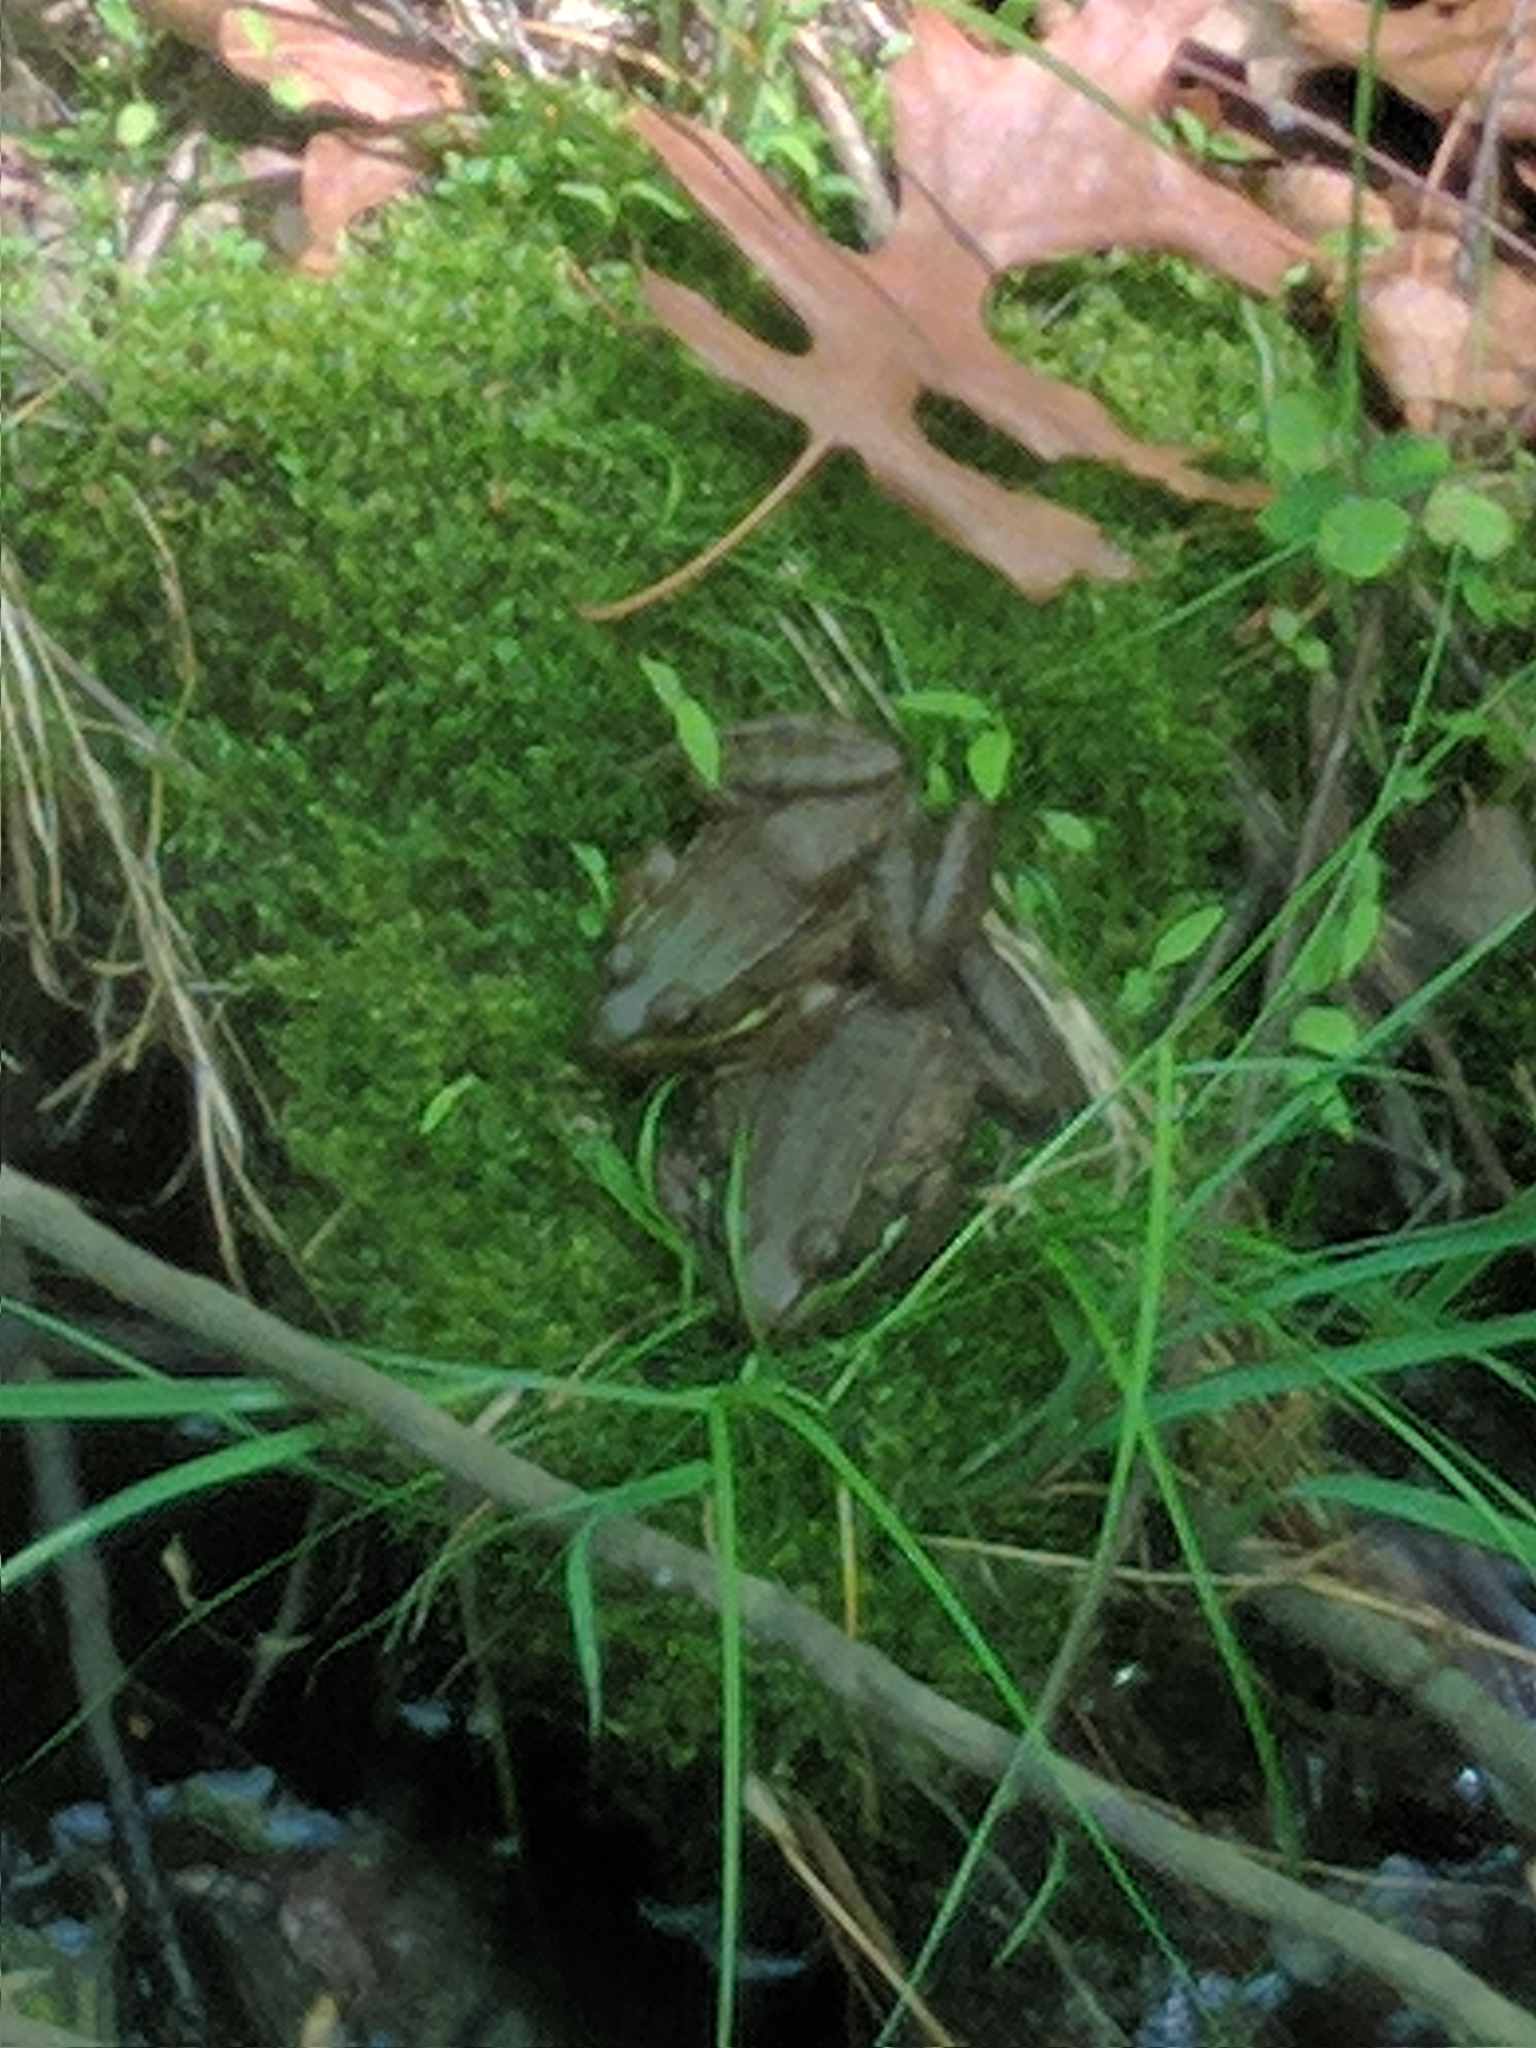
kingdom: Animalia
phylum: Chordata
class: Amphibia
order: Anura
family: Ranidae
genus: Lithobates
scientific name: Lithobates clamitans
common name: Green frog
